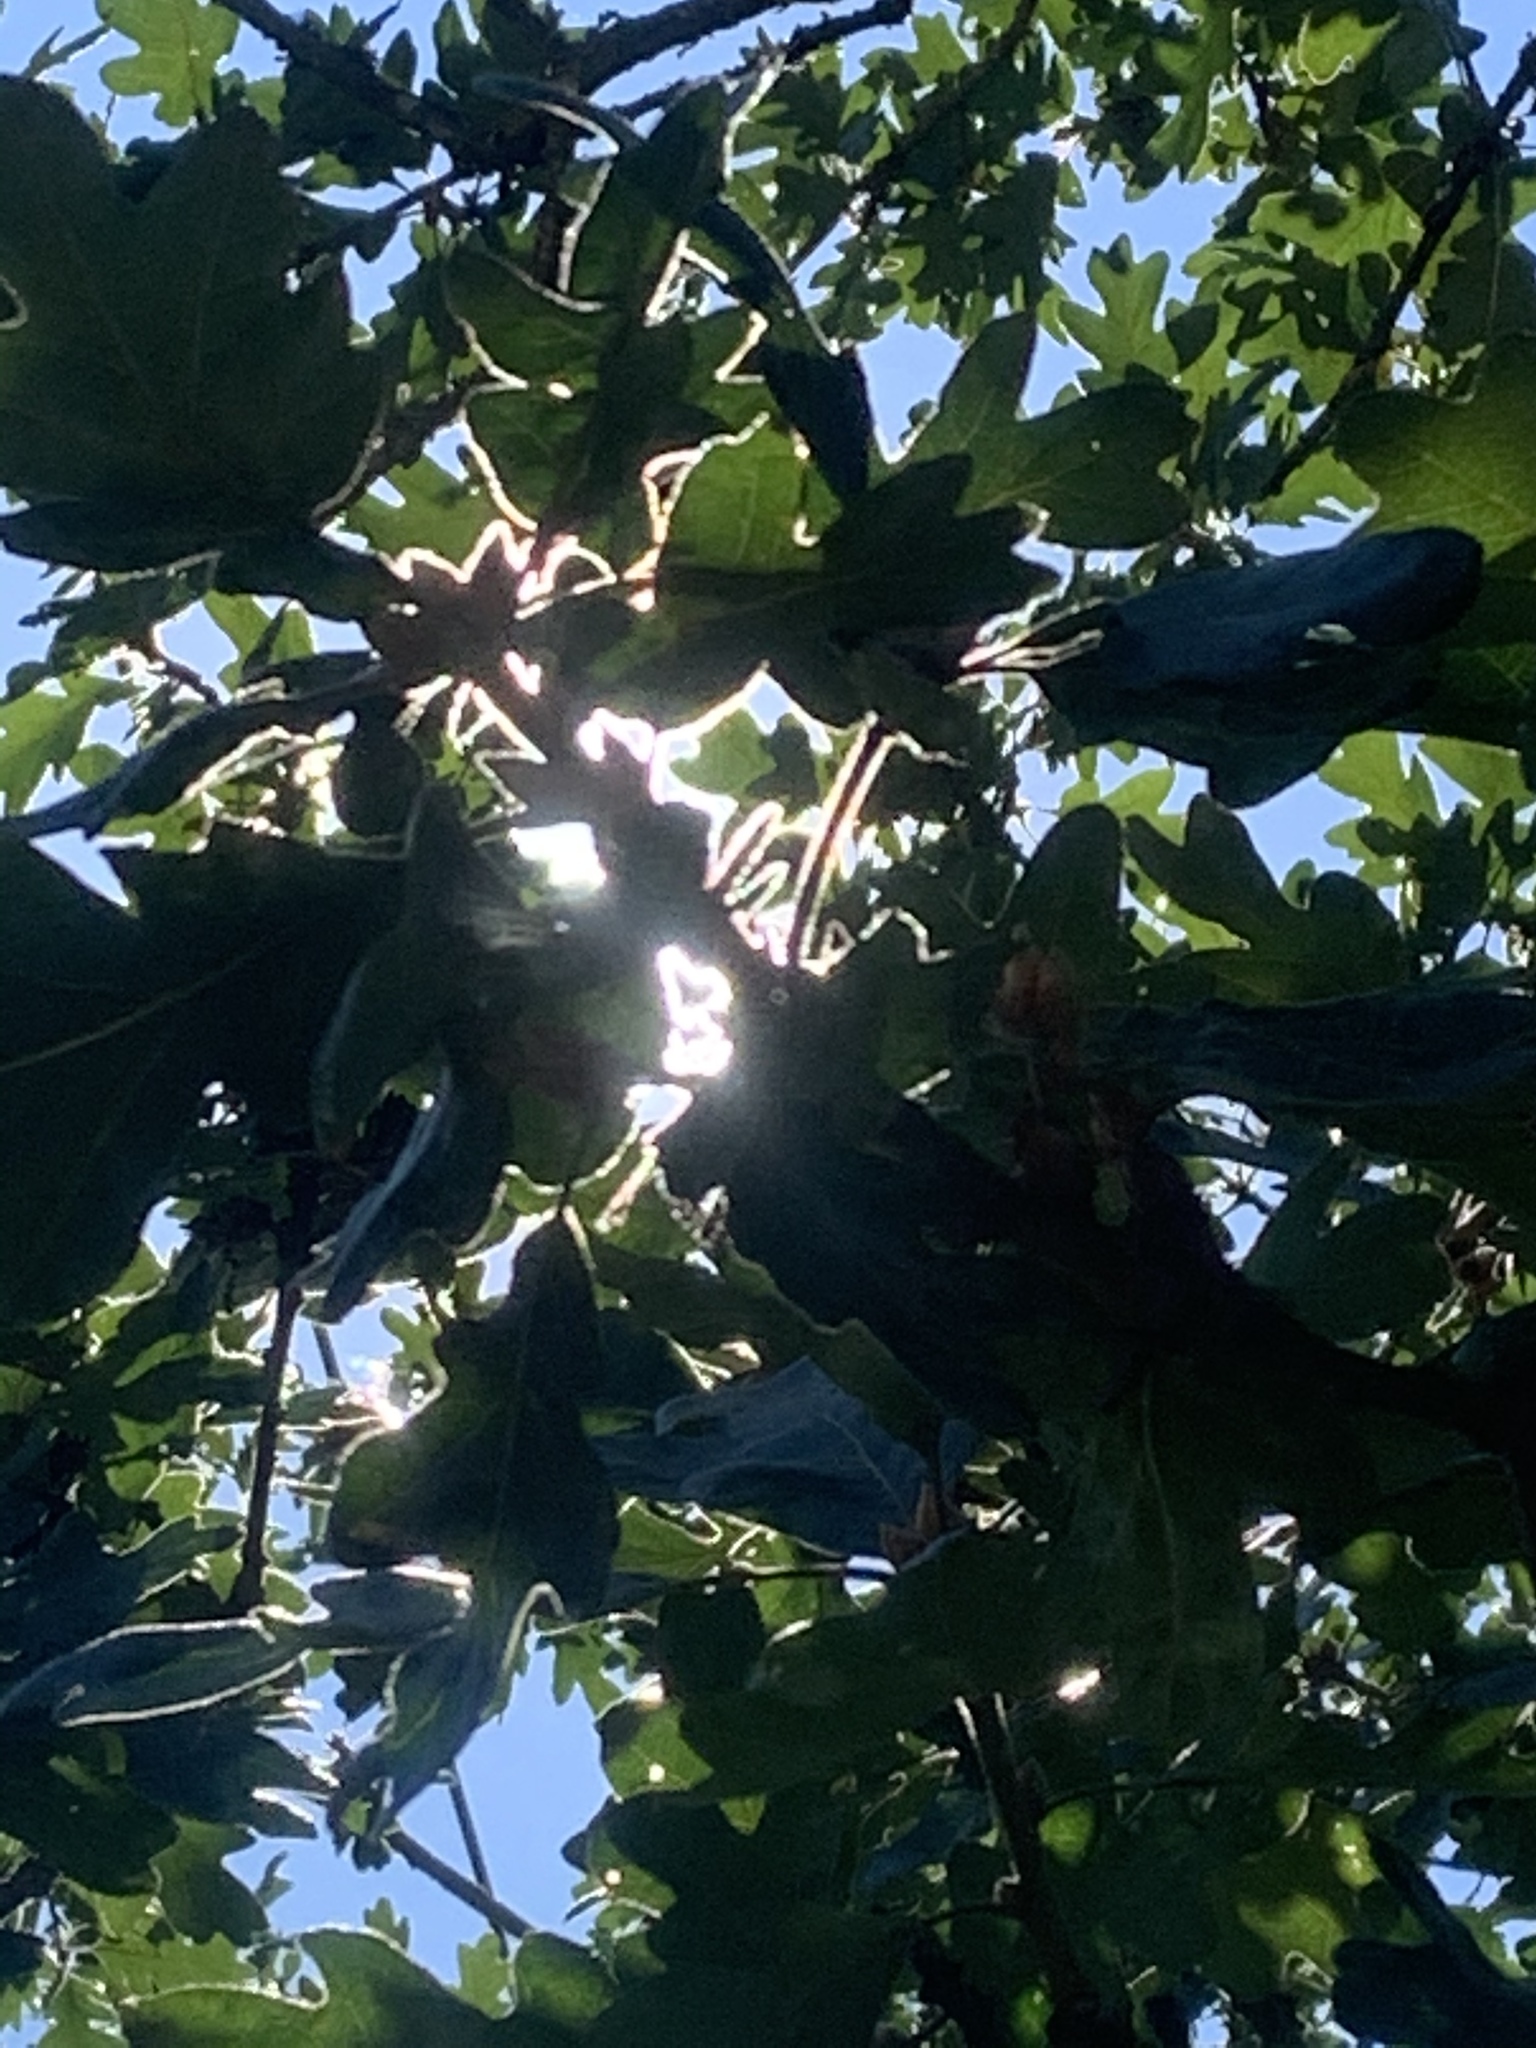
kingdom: Plantae
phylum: Tracheophyta
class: Magnoliopsida
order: Fagales
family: Fagaceae
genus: Quercus
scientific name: Quercus garryana
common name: Garry oak
